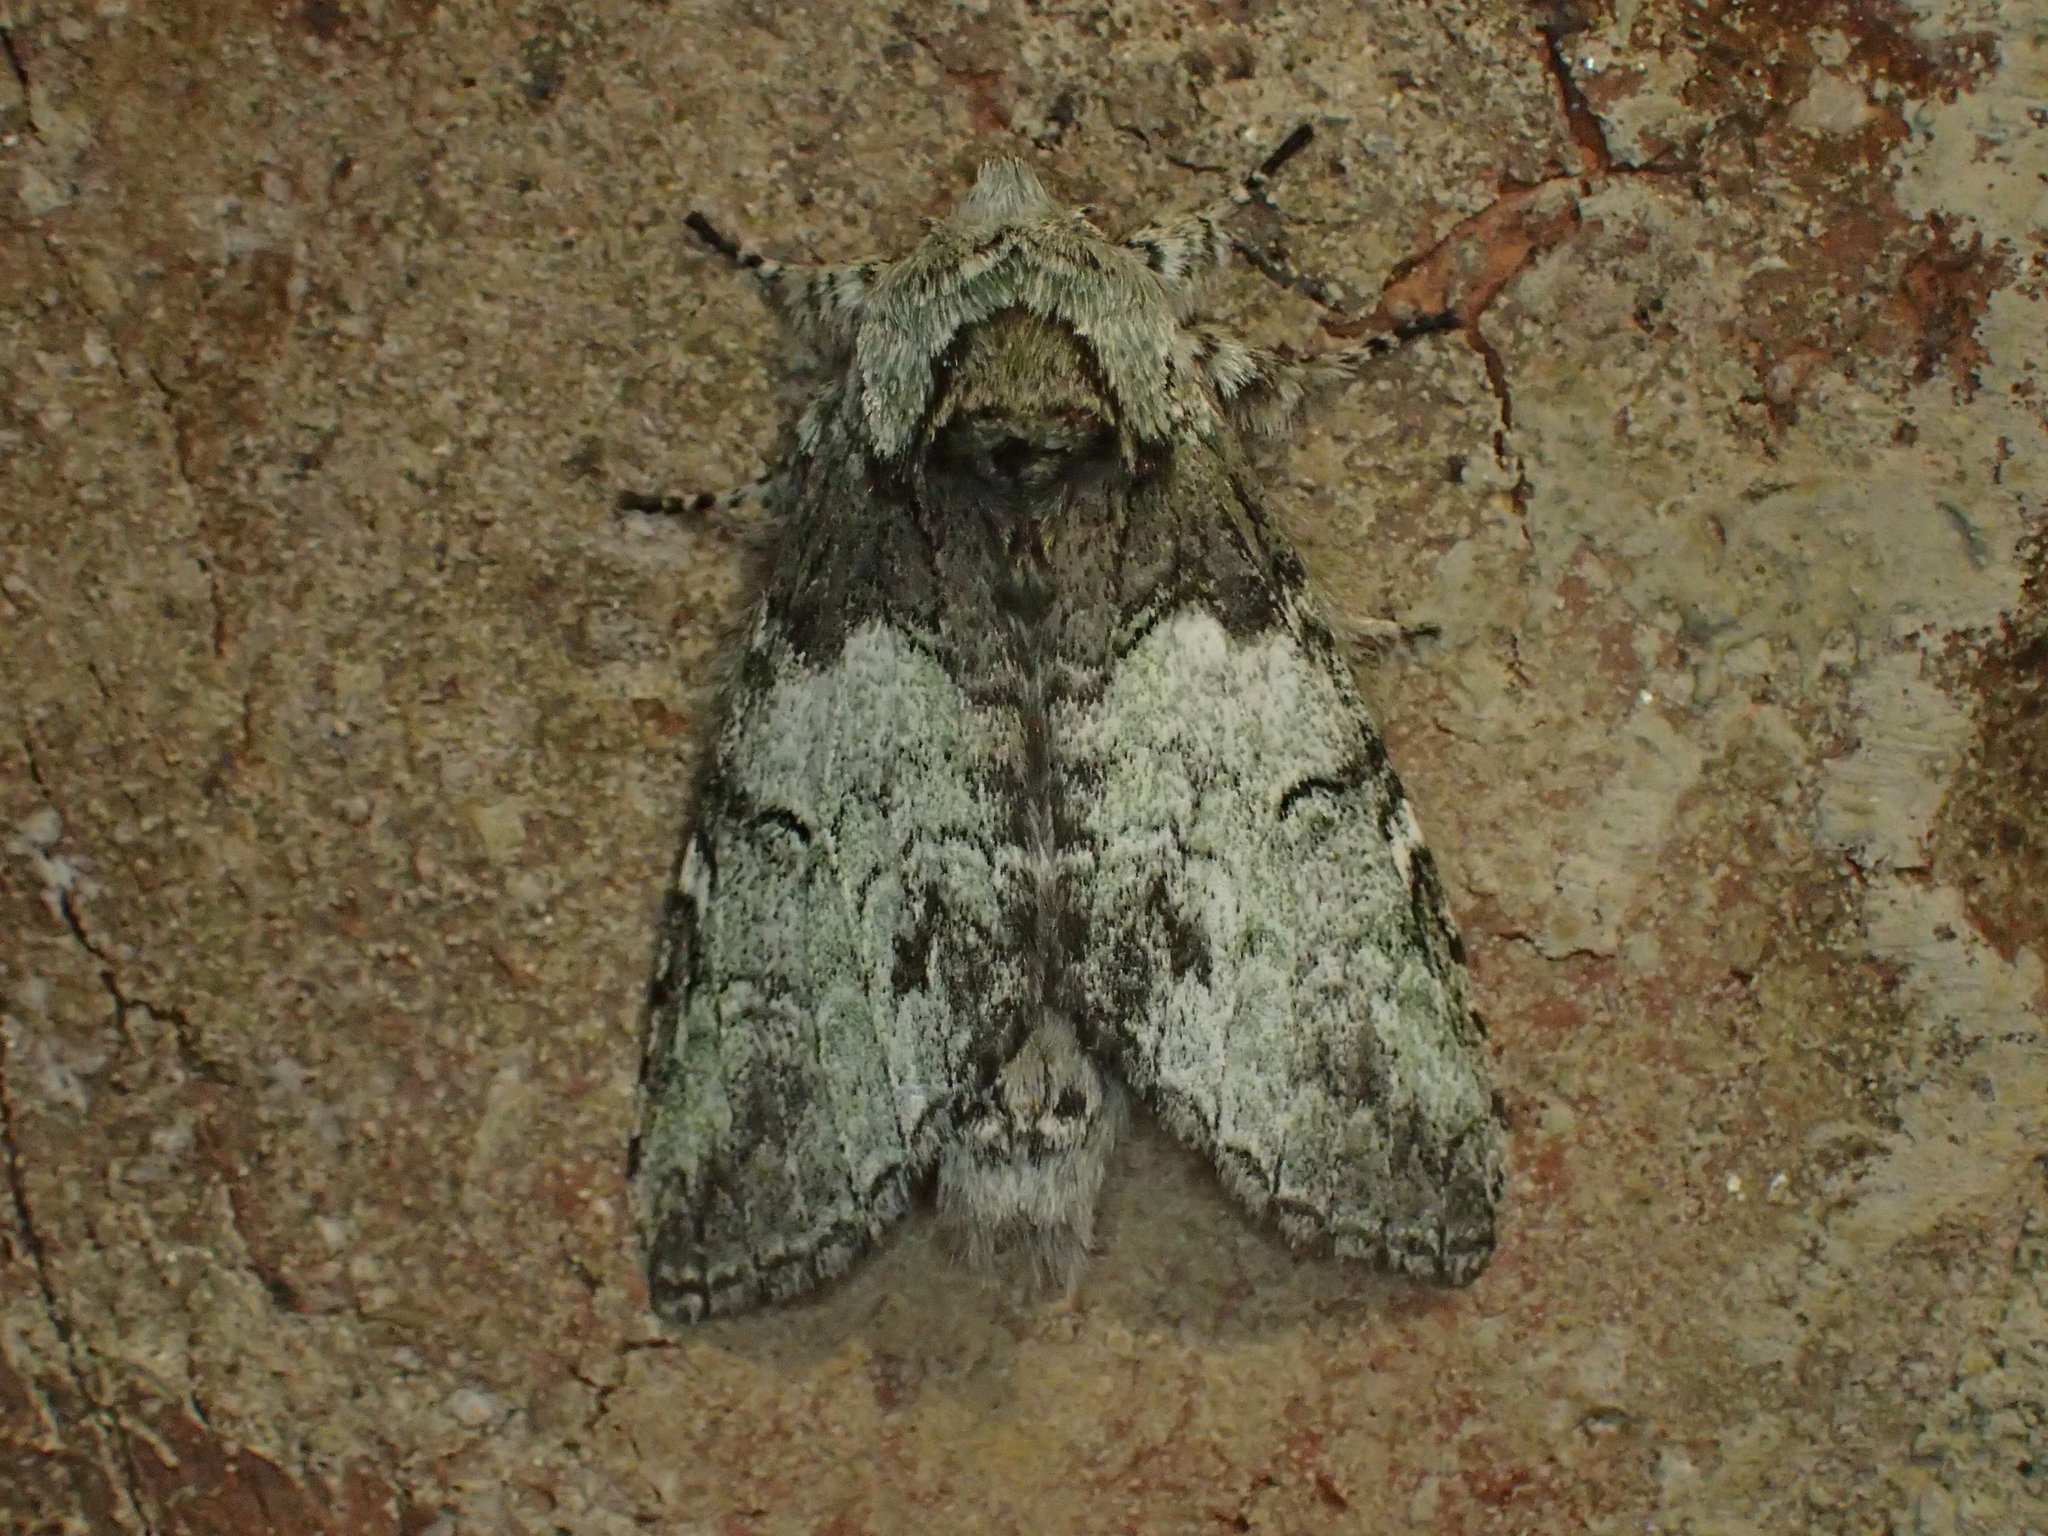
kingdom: Animalia
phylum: Arthropoda
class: Insecta
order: Lepidoptera
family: Notodontidae
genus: Macrurocampa
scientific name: Macrurocampa marthesia
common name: Mottled prominent
